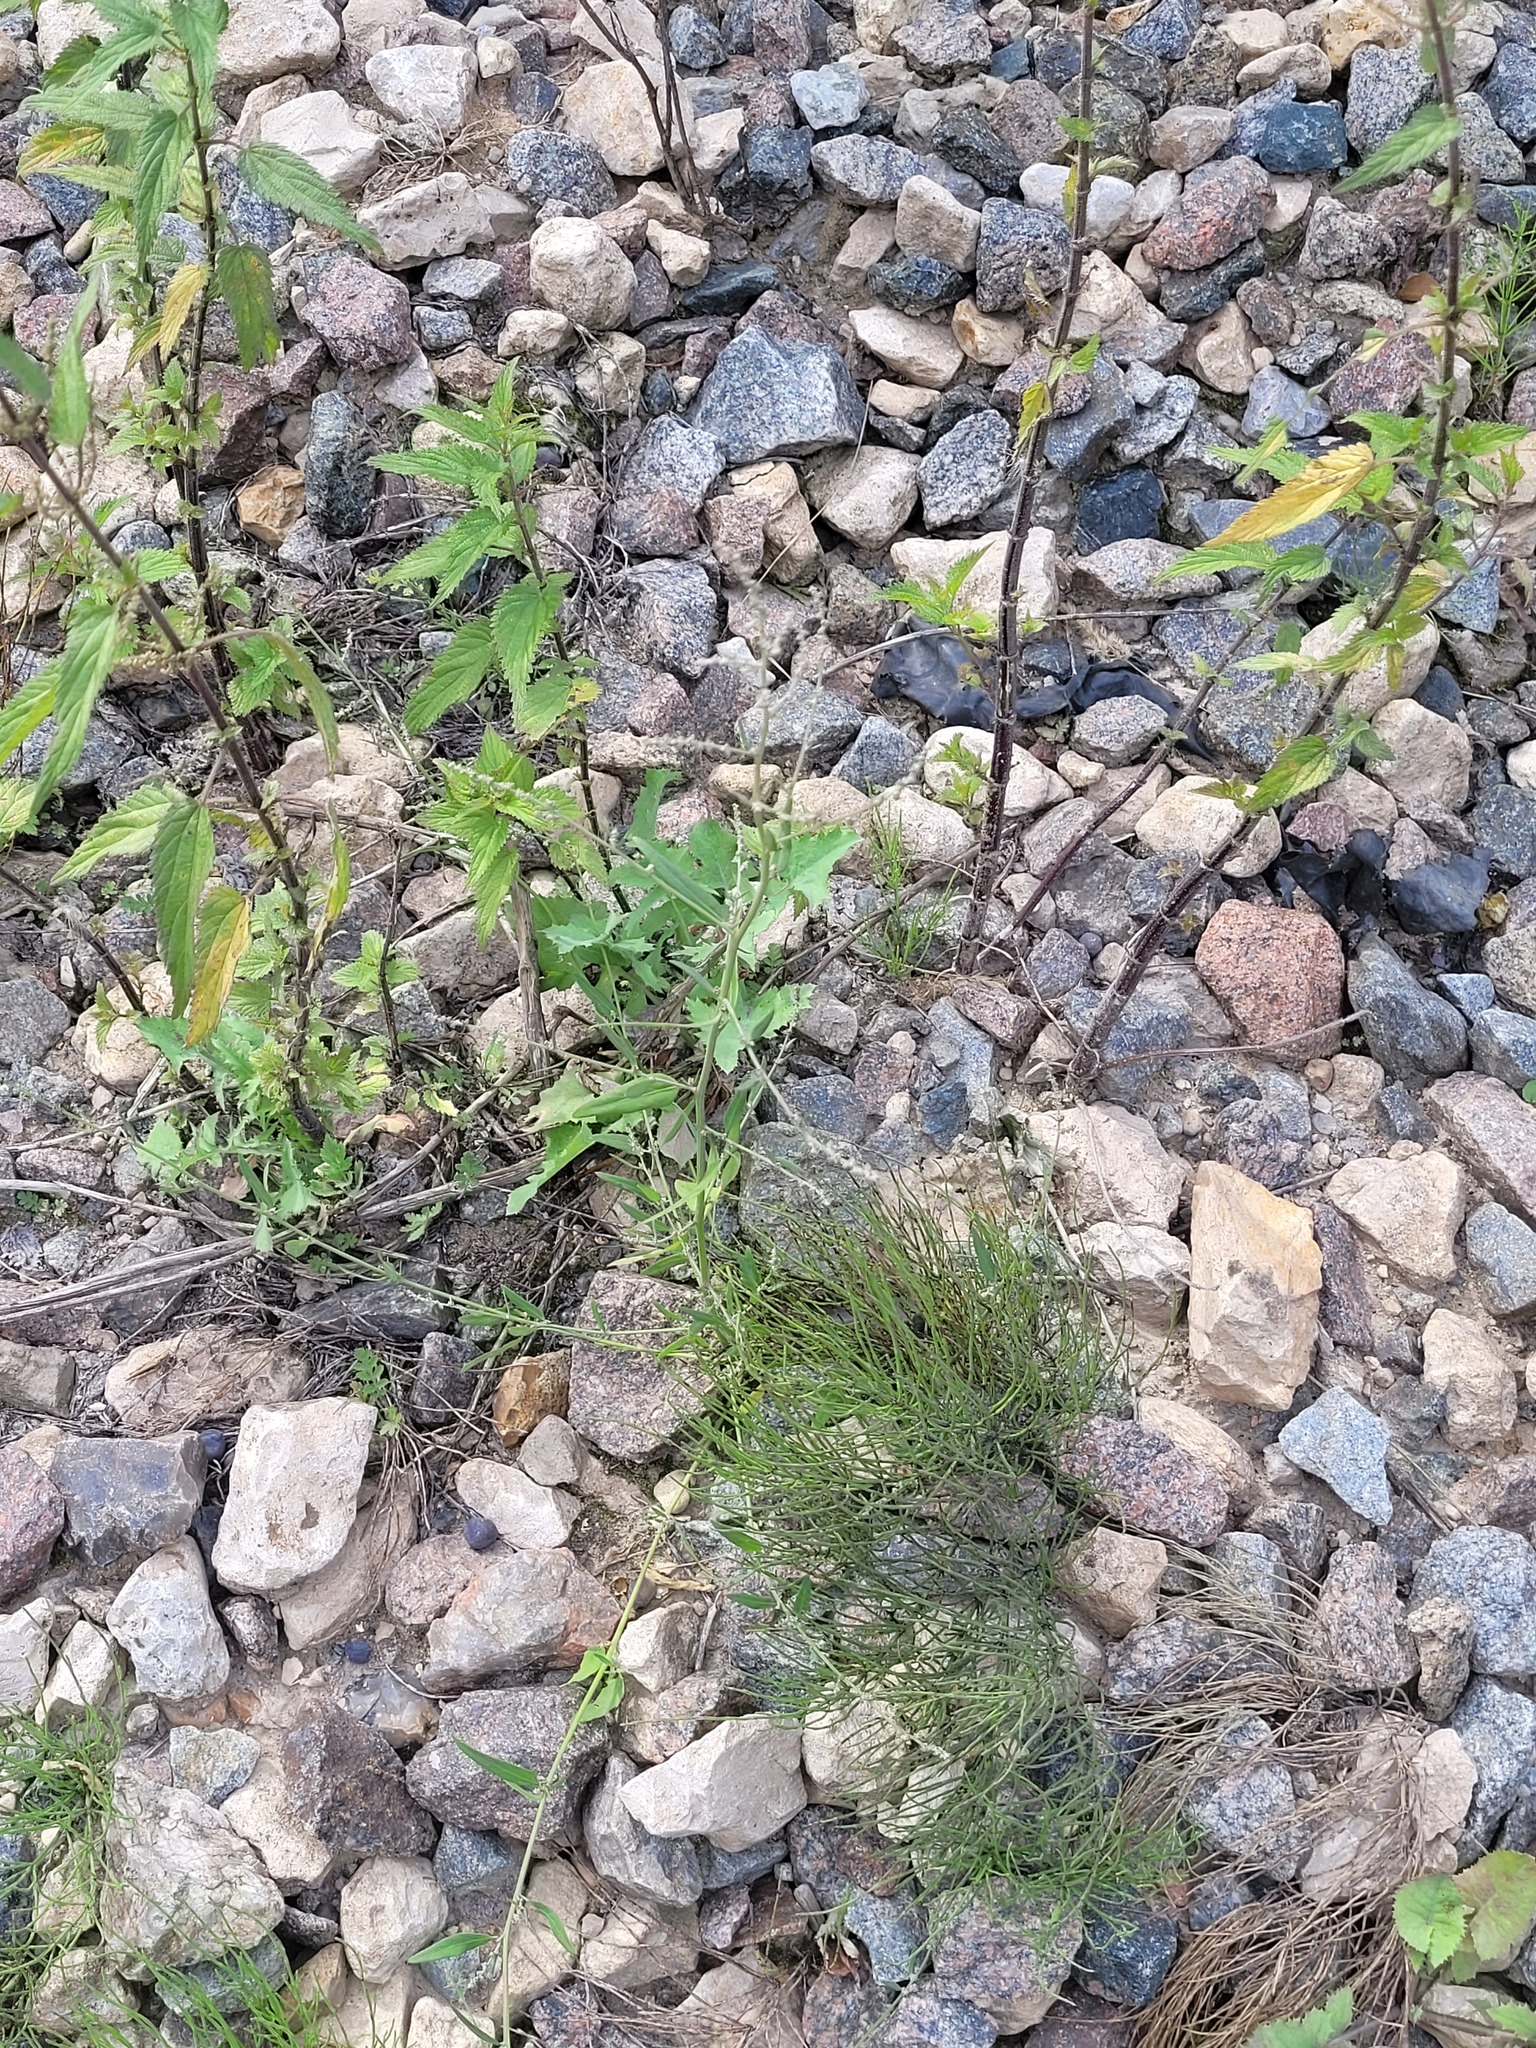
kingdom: Plantae
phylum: Tracheophyta
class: Magnoliopsida
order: Caryophyllales
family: Amaranthaceae
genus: Atriplex
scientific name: Atriplex patula
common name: Common orache
